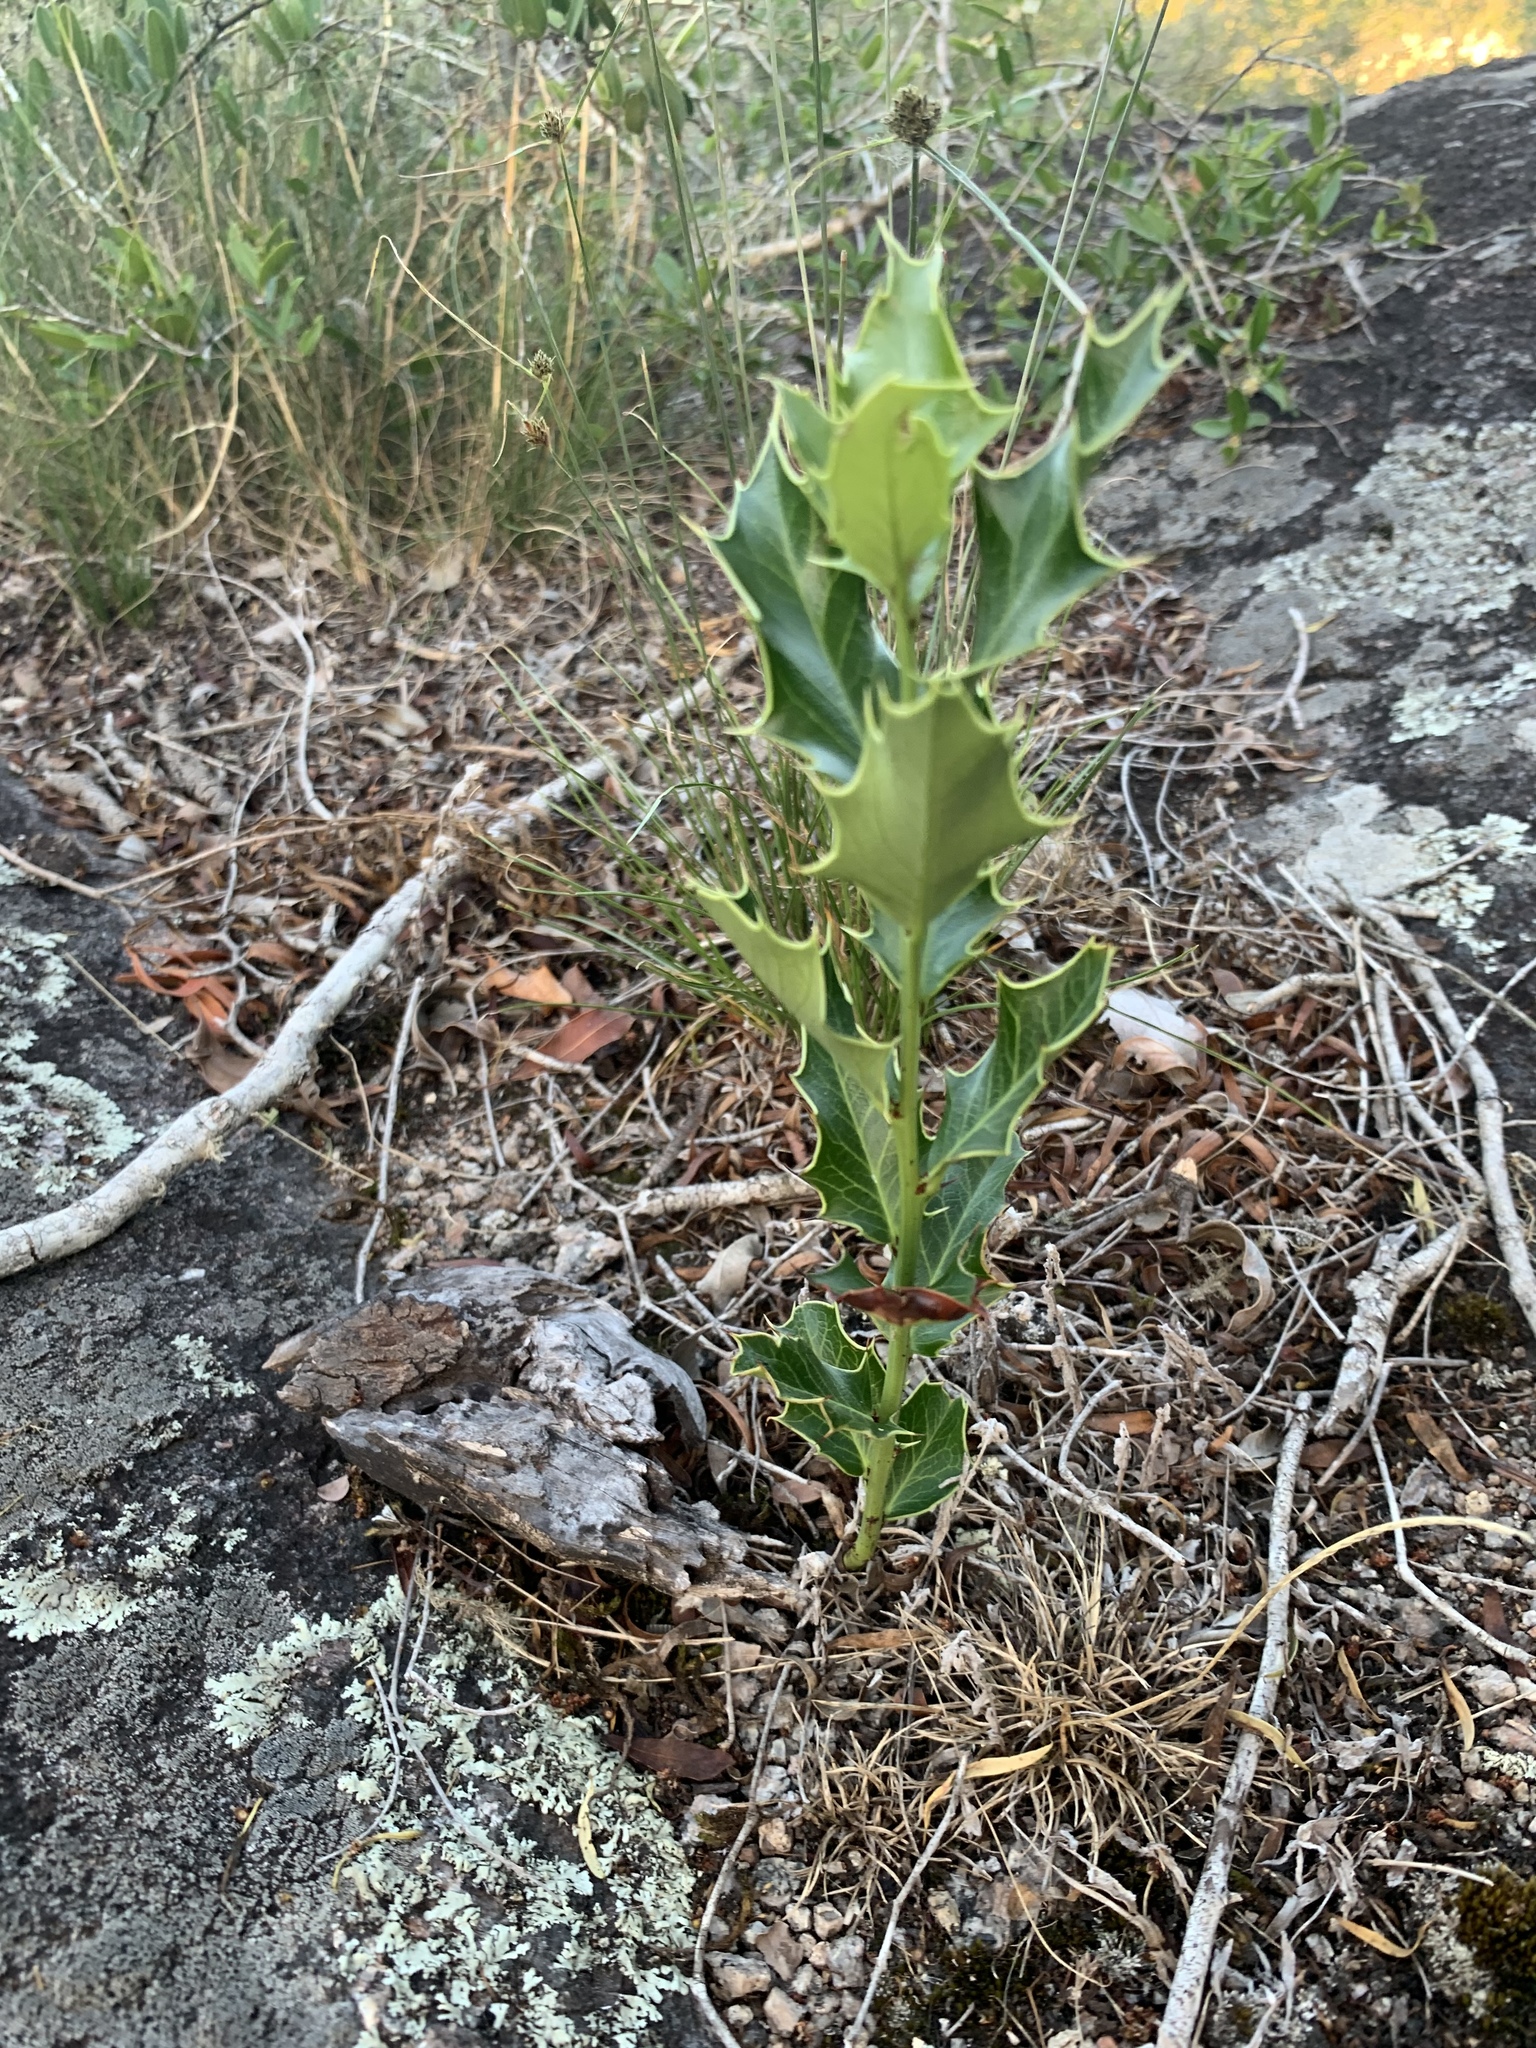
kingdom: Plantae
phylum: Tracheophyta
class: Magnoliopsida
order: Celastrales
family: Celastraceae
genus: Monteverdia
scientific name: Monteverdia
